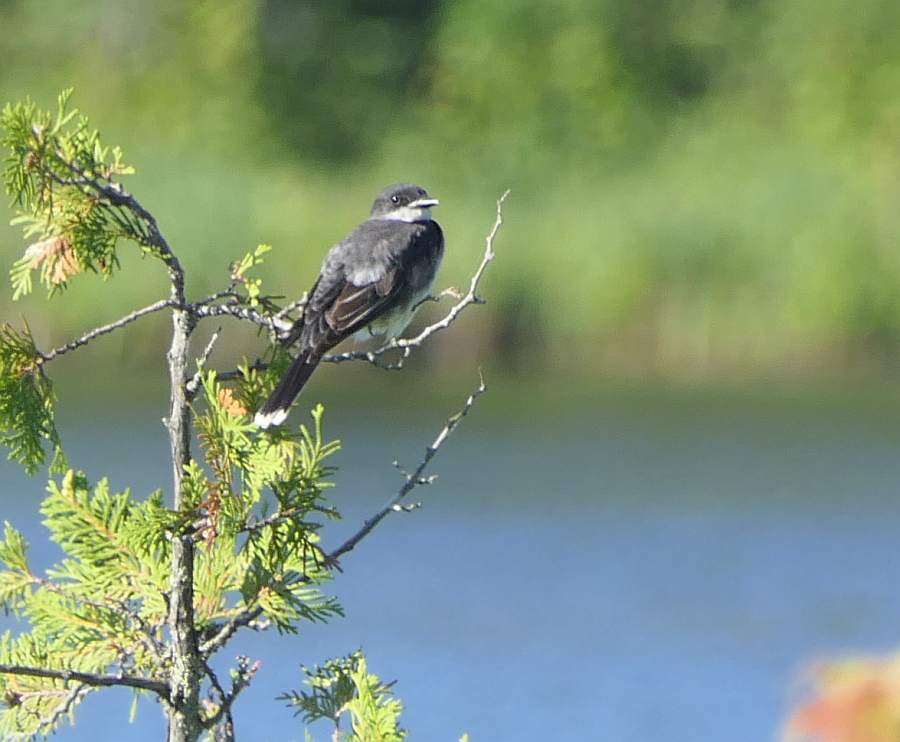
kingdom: Animalia
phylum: Chordata
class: Aves
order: Passeriformes
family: Tyrannidae
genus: Tyrannus
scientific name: Tyrannus tyrannus
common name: Eastern kingbird
